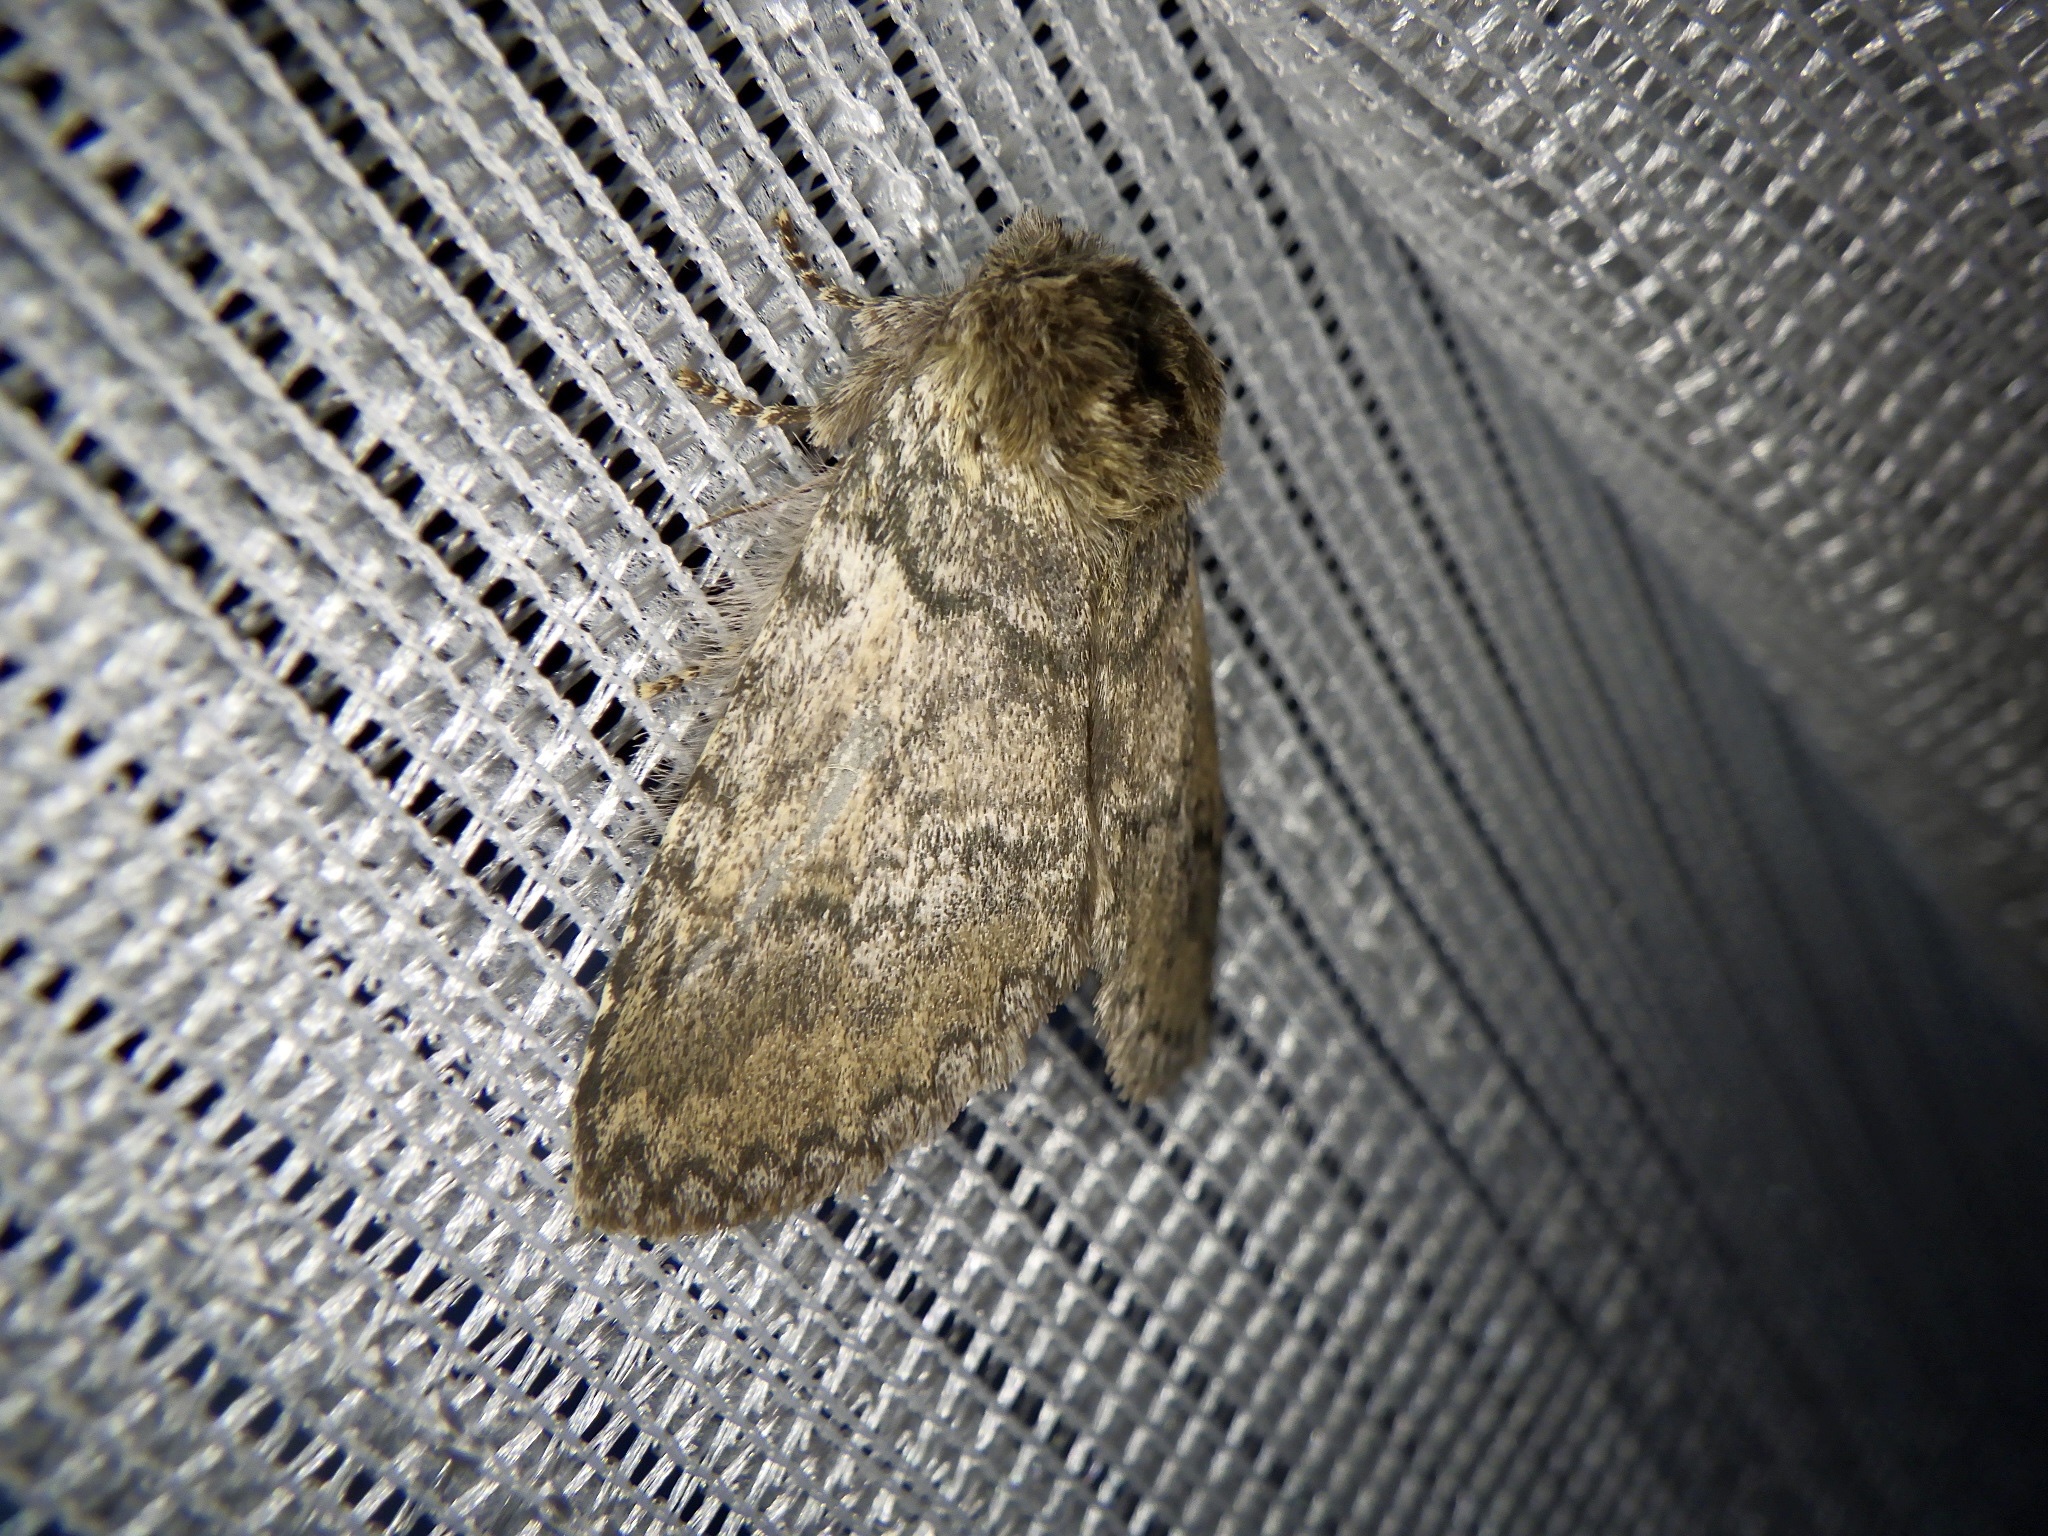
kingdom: Animalia
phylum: Arthropoda
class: Insecta
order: Lepidoptera
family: Notodontidae
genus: Disparia
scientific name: Disparia diluta
